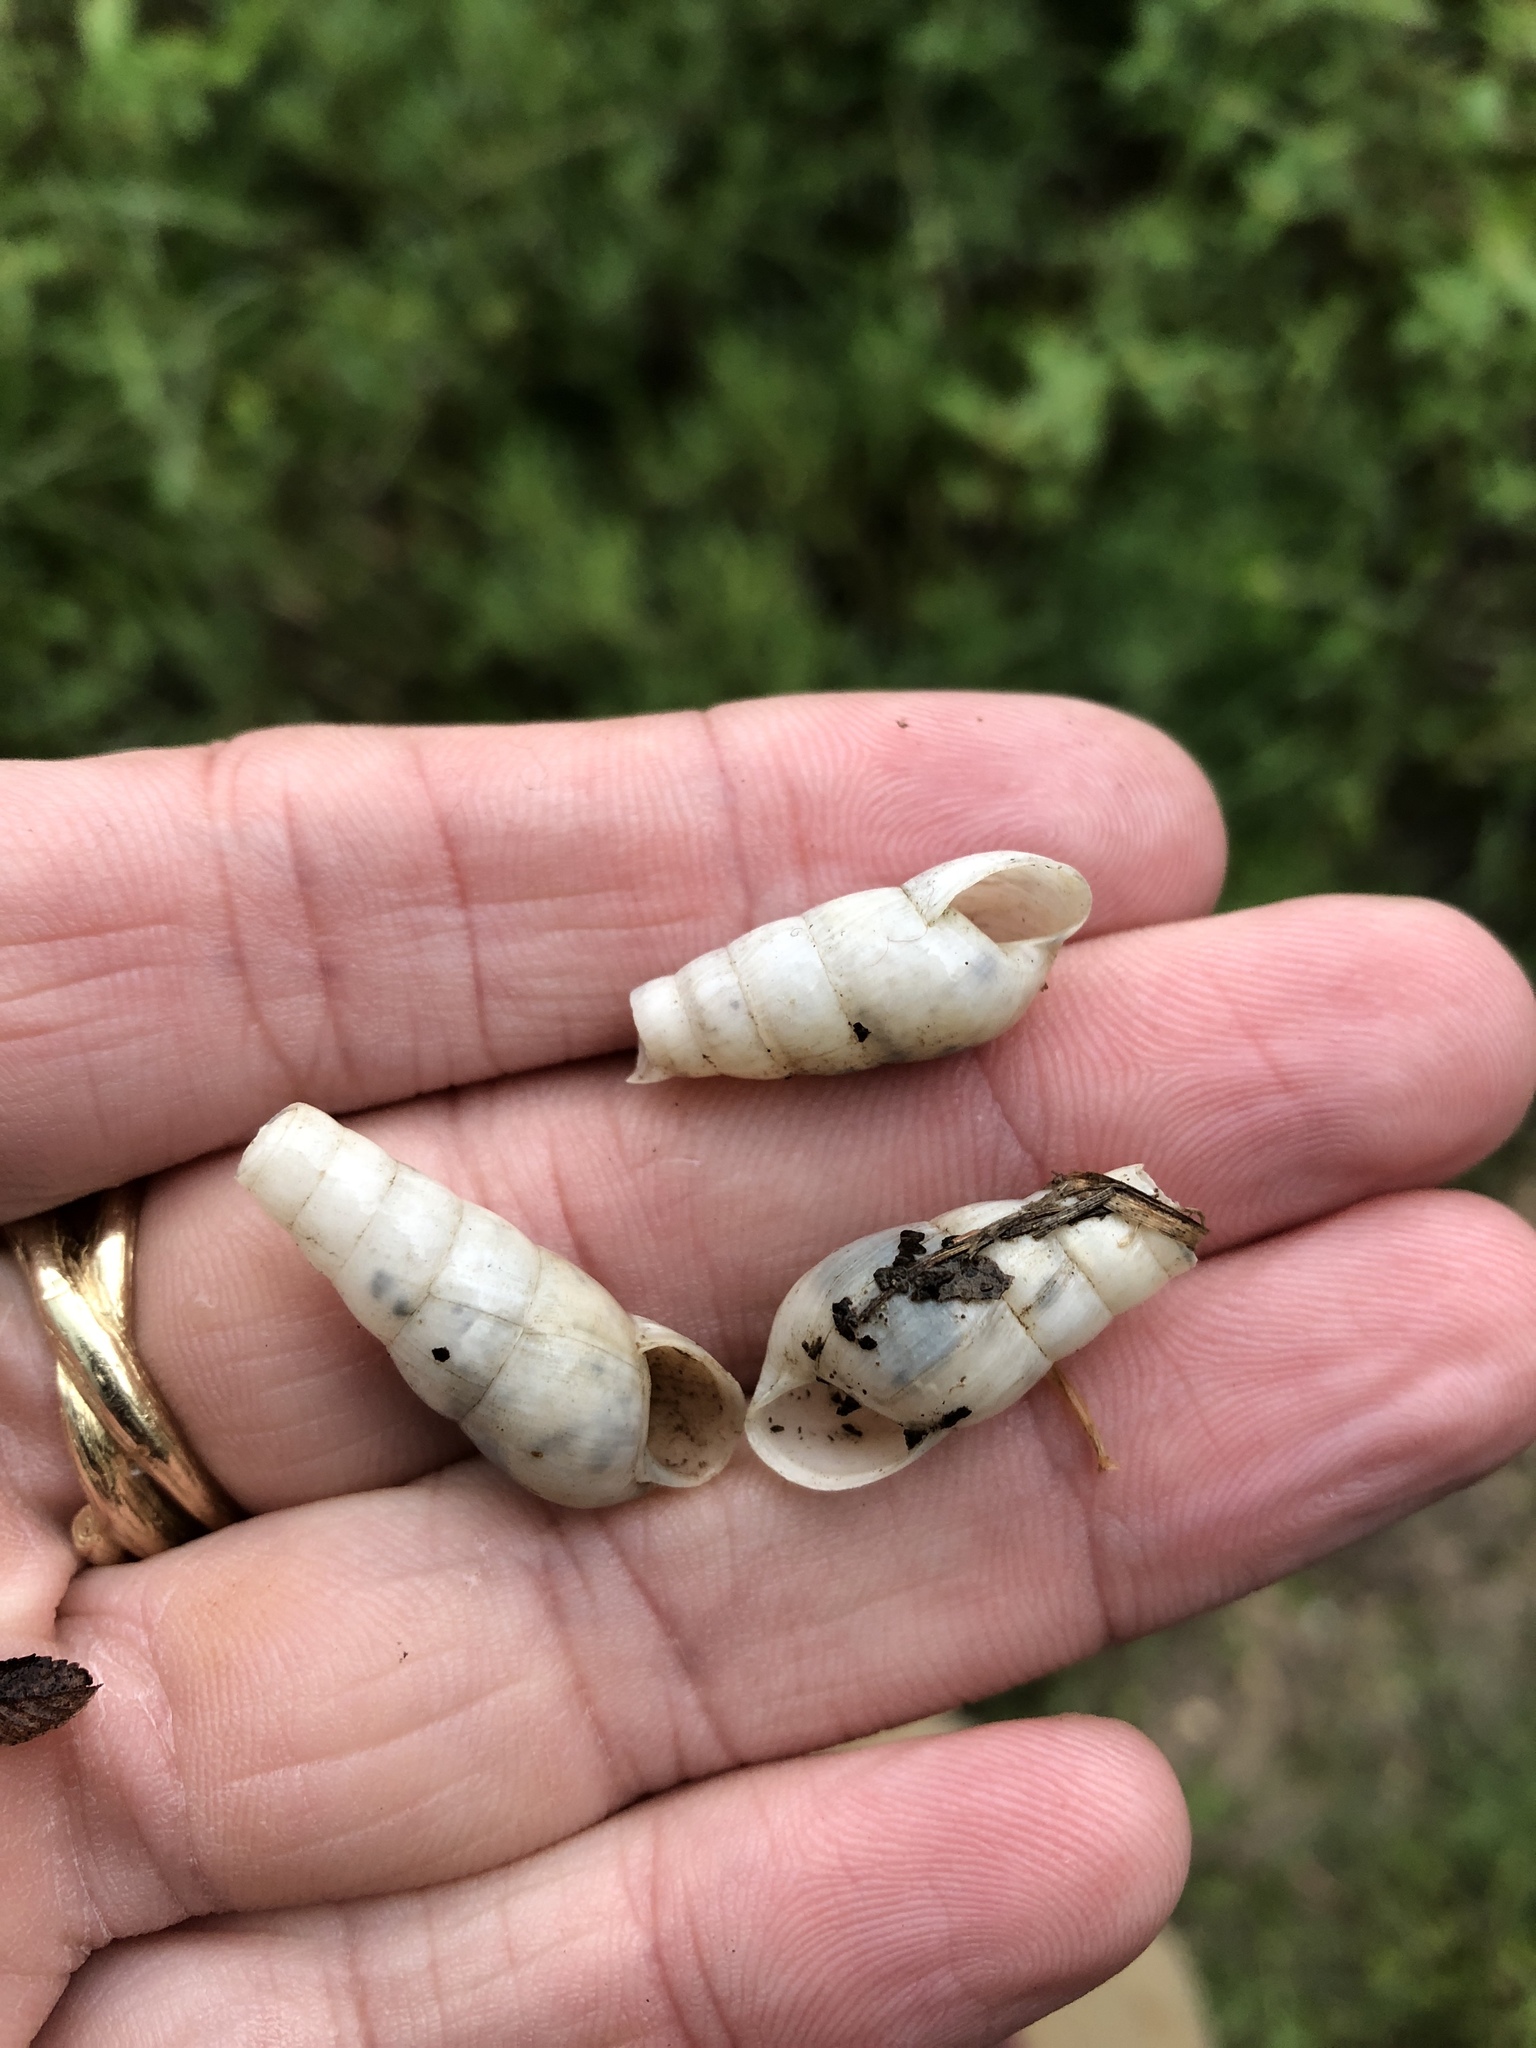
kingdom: Animalia
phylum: Mollusca
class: Gastropoda
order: Stylommatophora
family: Achatinidae
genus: Rumina
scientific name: Rumina decollata
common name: Decollate snail
